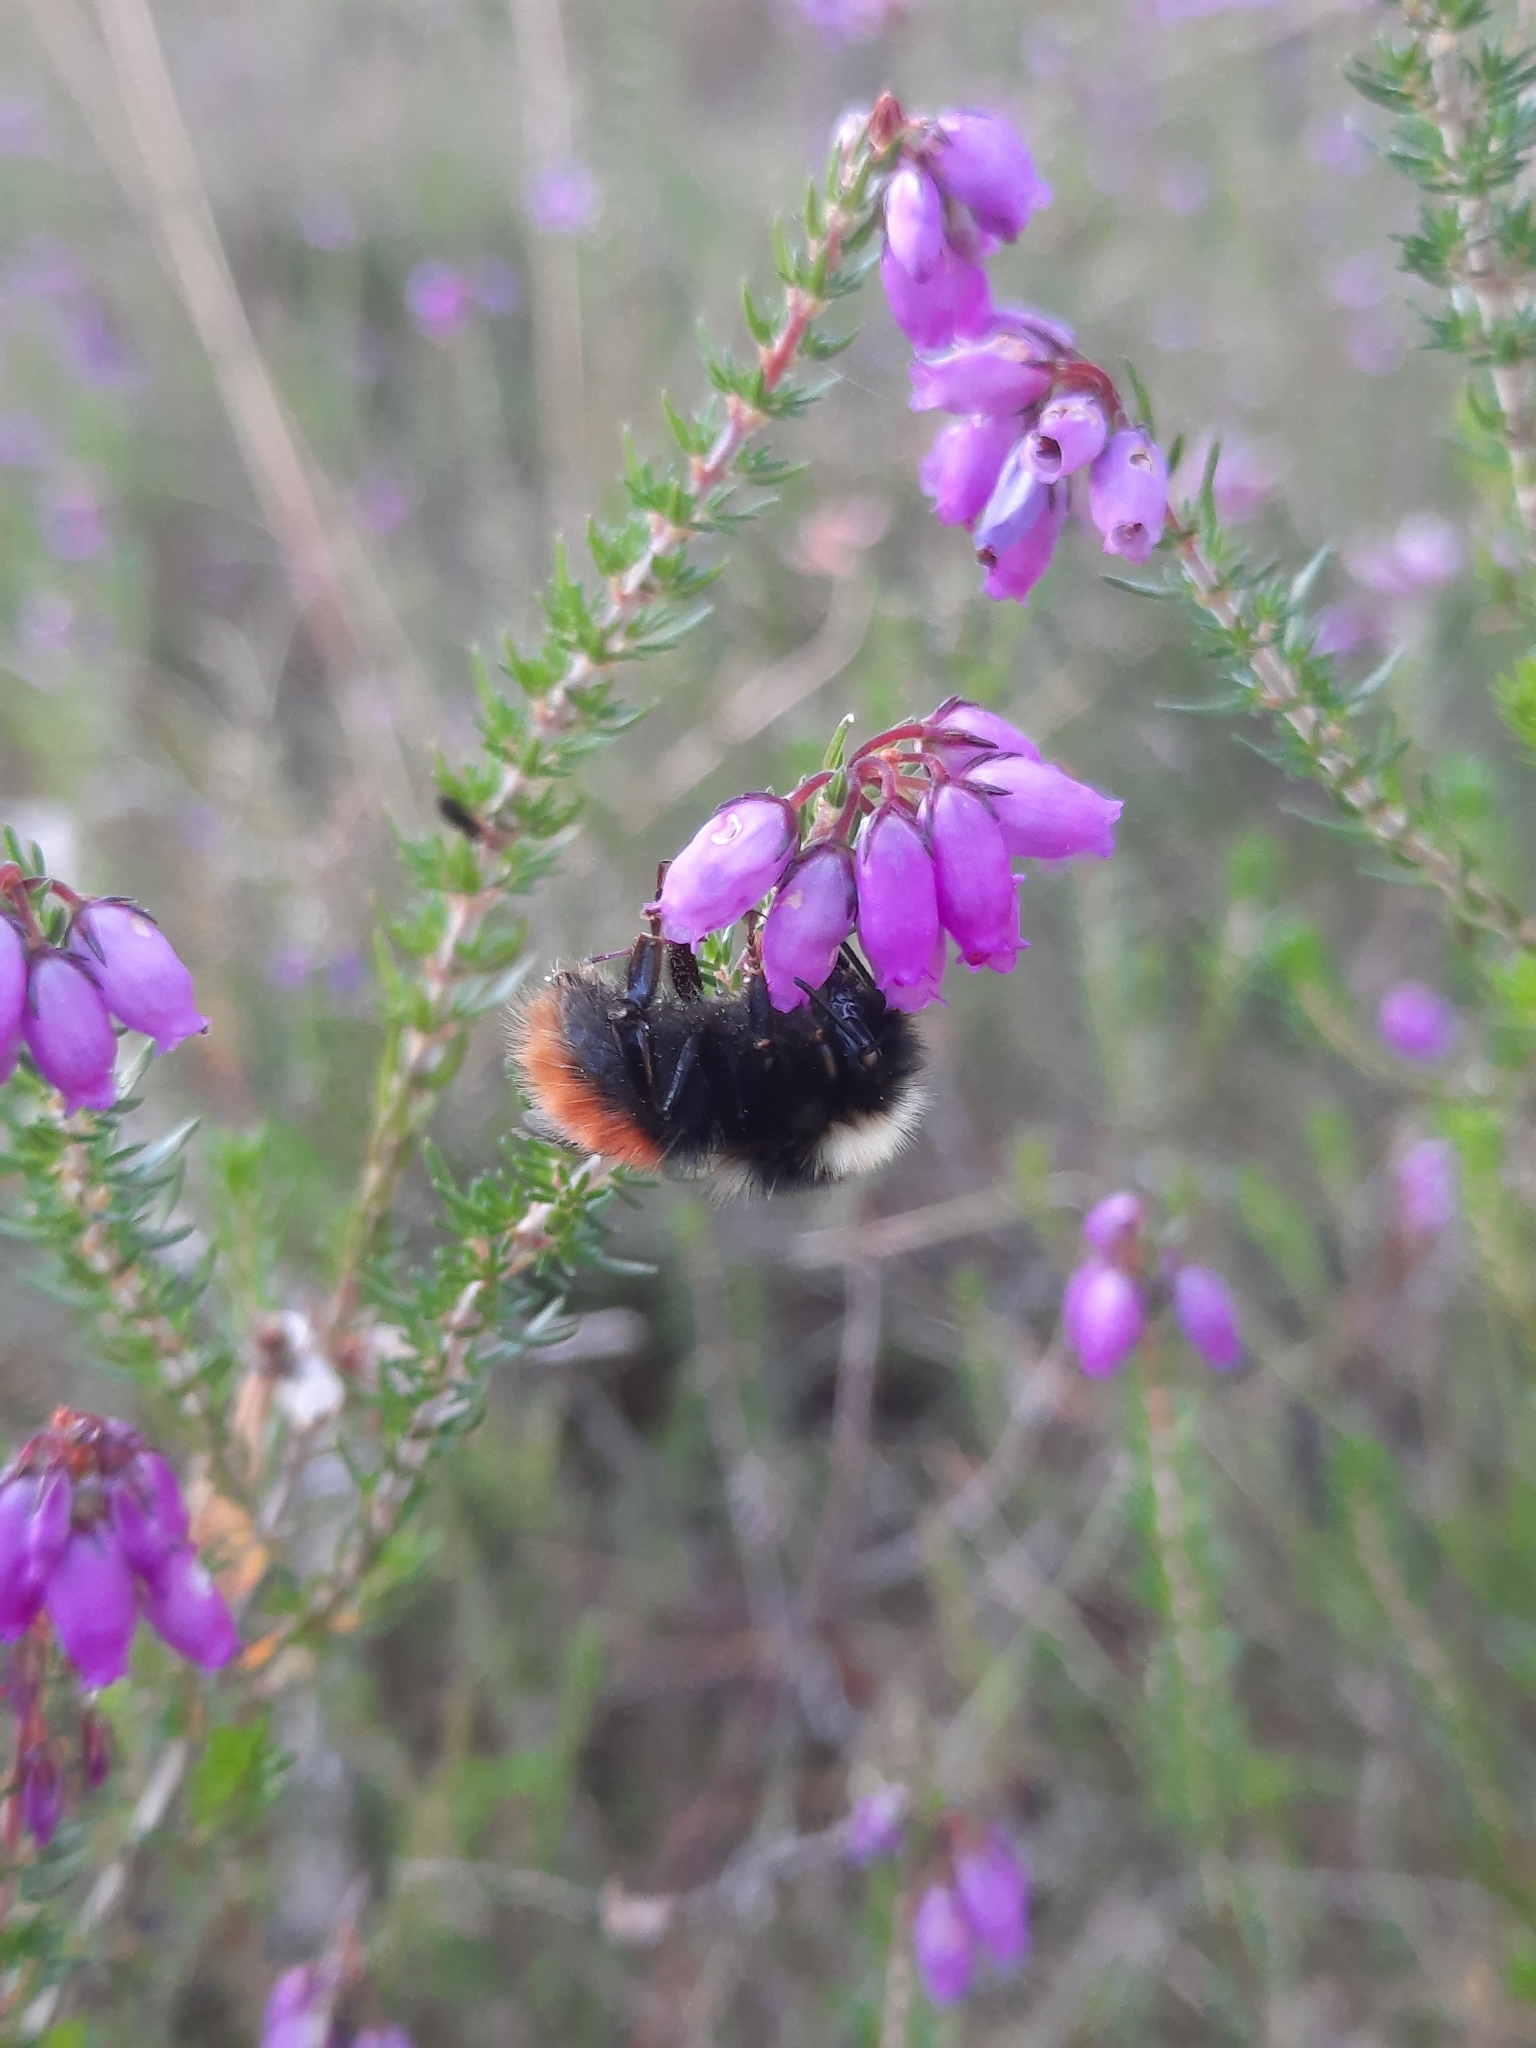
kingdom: Animalia
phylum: Arthropoda
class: Insecta
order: Hymenoptera
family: Apidae
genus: Bombus
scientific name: Bombus monticola
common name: Bilberry humble-bee
